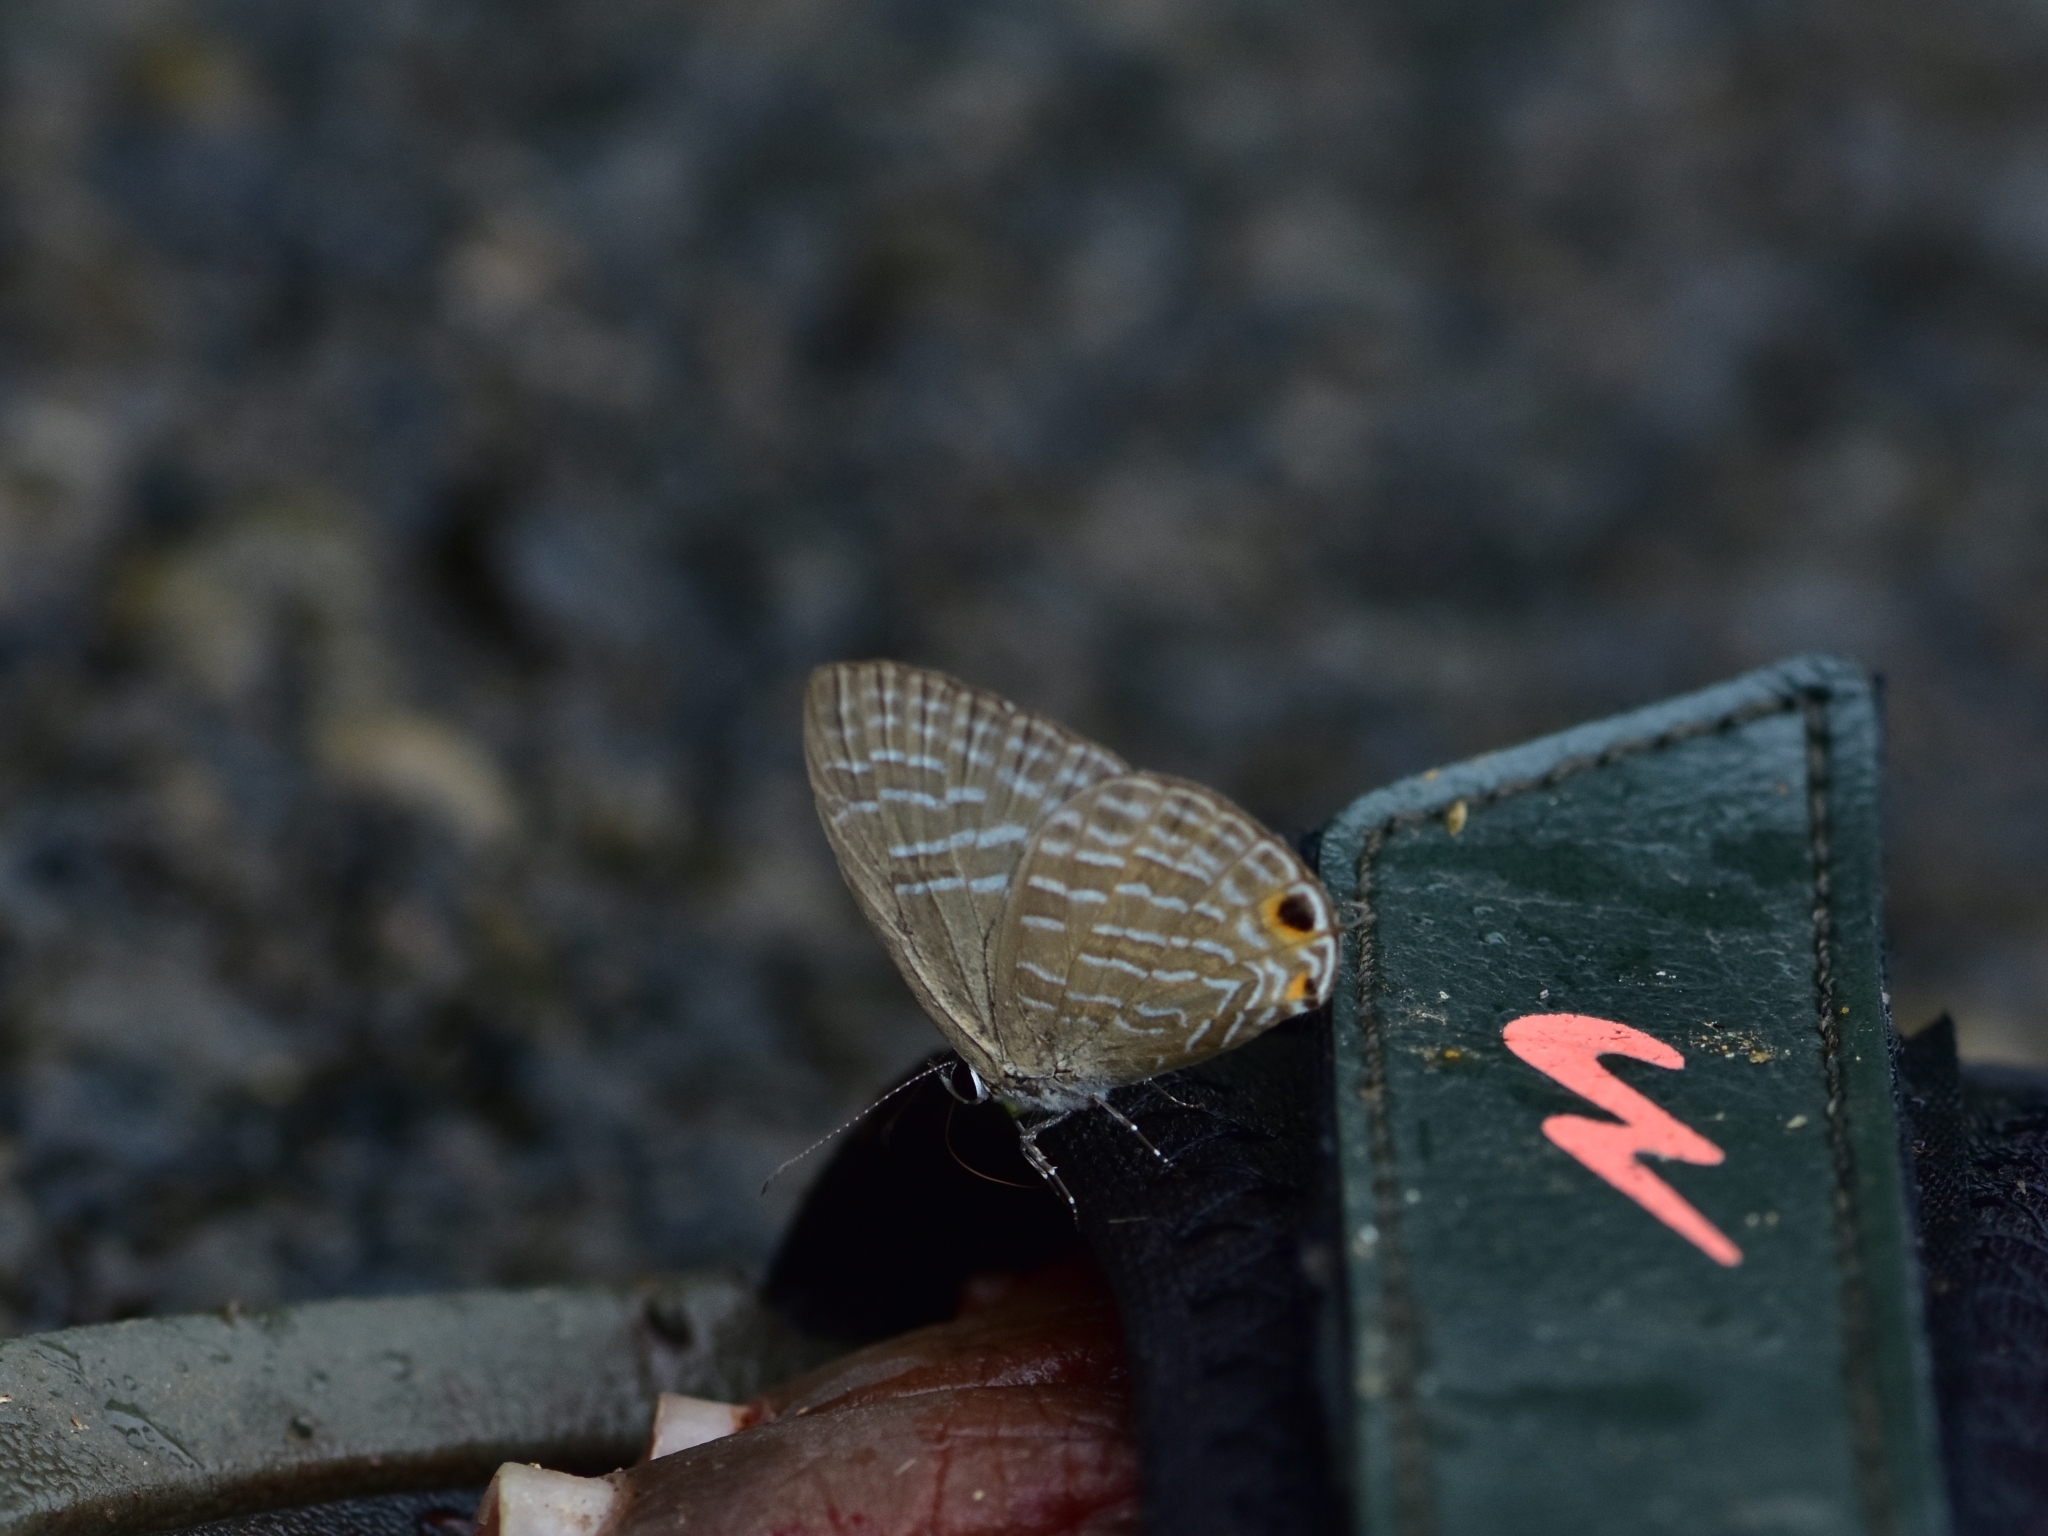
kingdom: Animalia
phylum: Arthropoda
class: Insecta
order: Lepidoptera
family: Lycaenidae
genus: Jamides
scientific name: Jamides bochus
